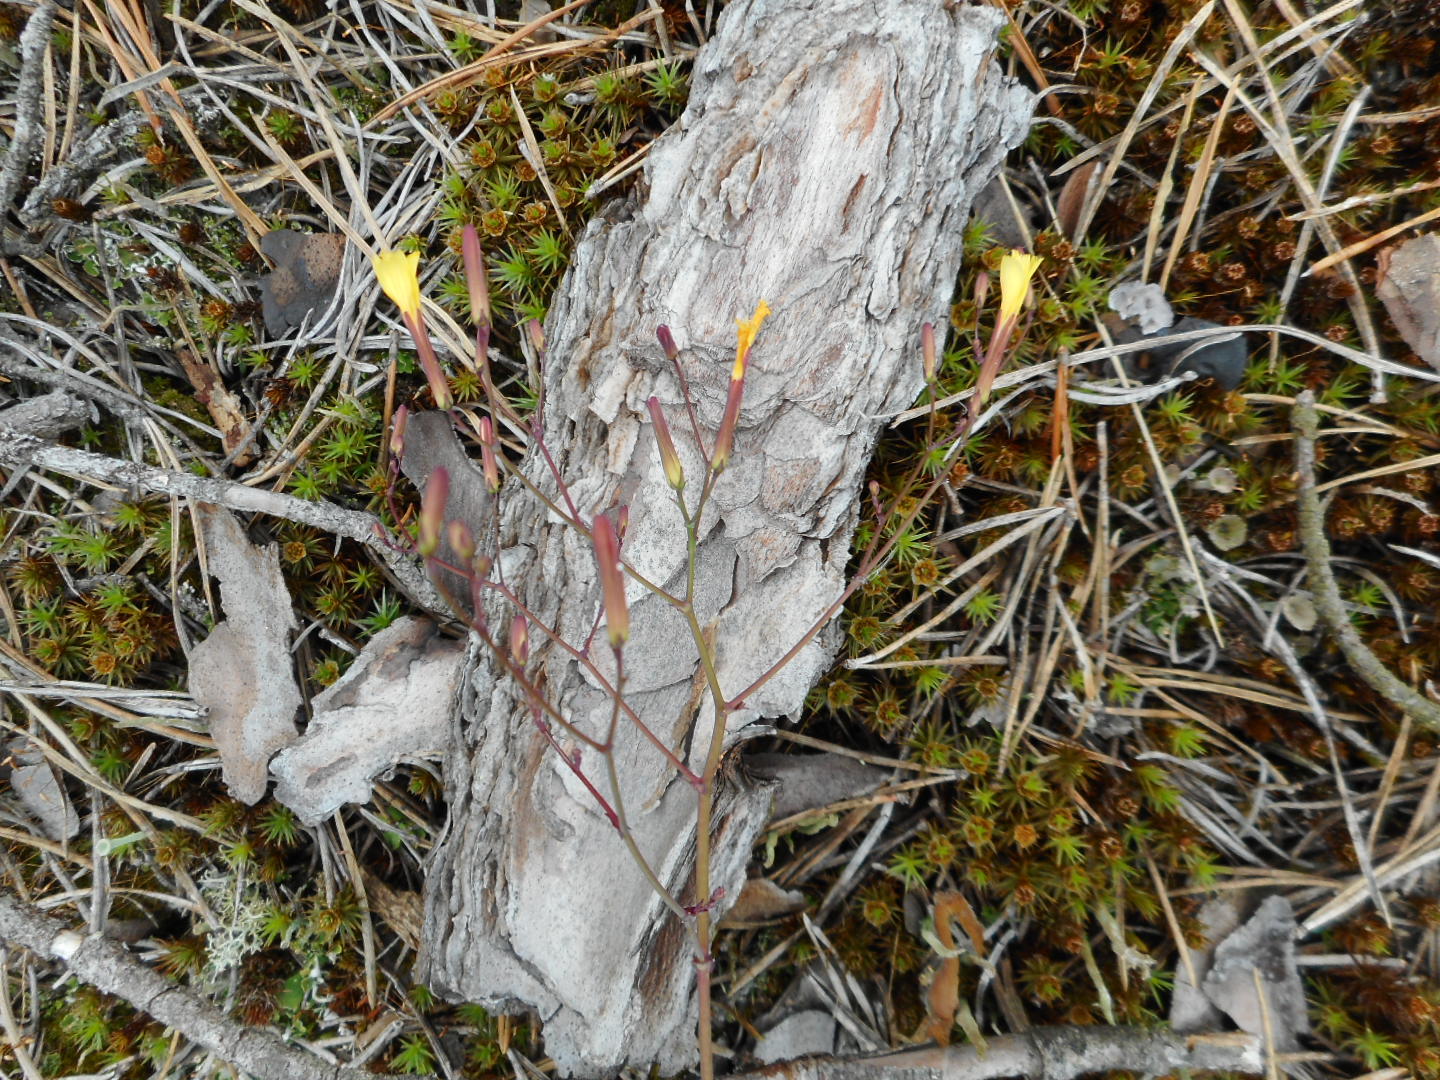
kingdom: Plantae
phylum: Tracheophyta
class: Magnoliopsida
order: Asterales
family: Asteraceae
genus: Mycelis
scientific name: Mycelis muralis
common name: Wall lettuce
